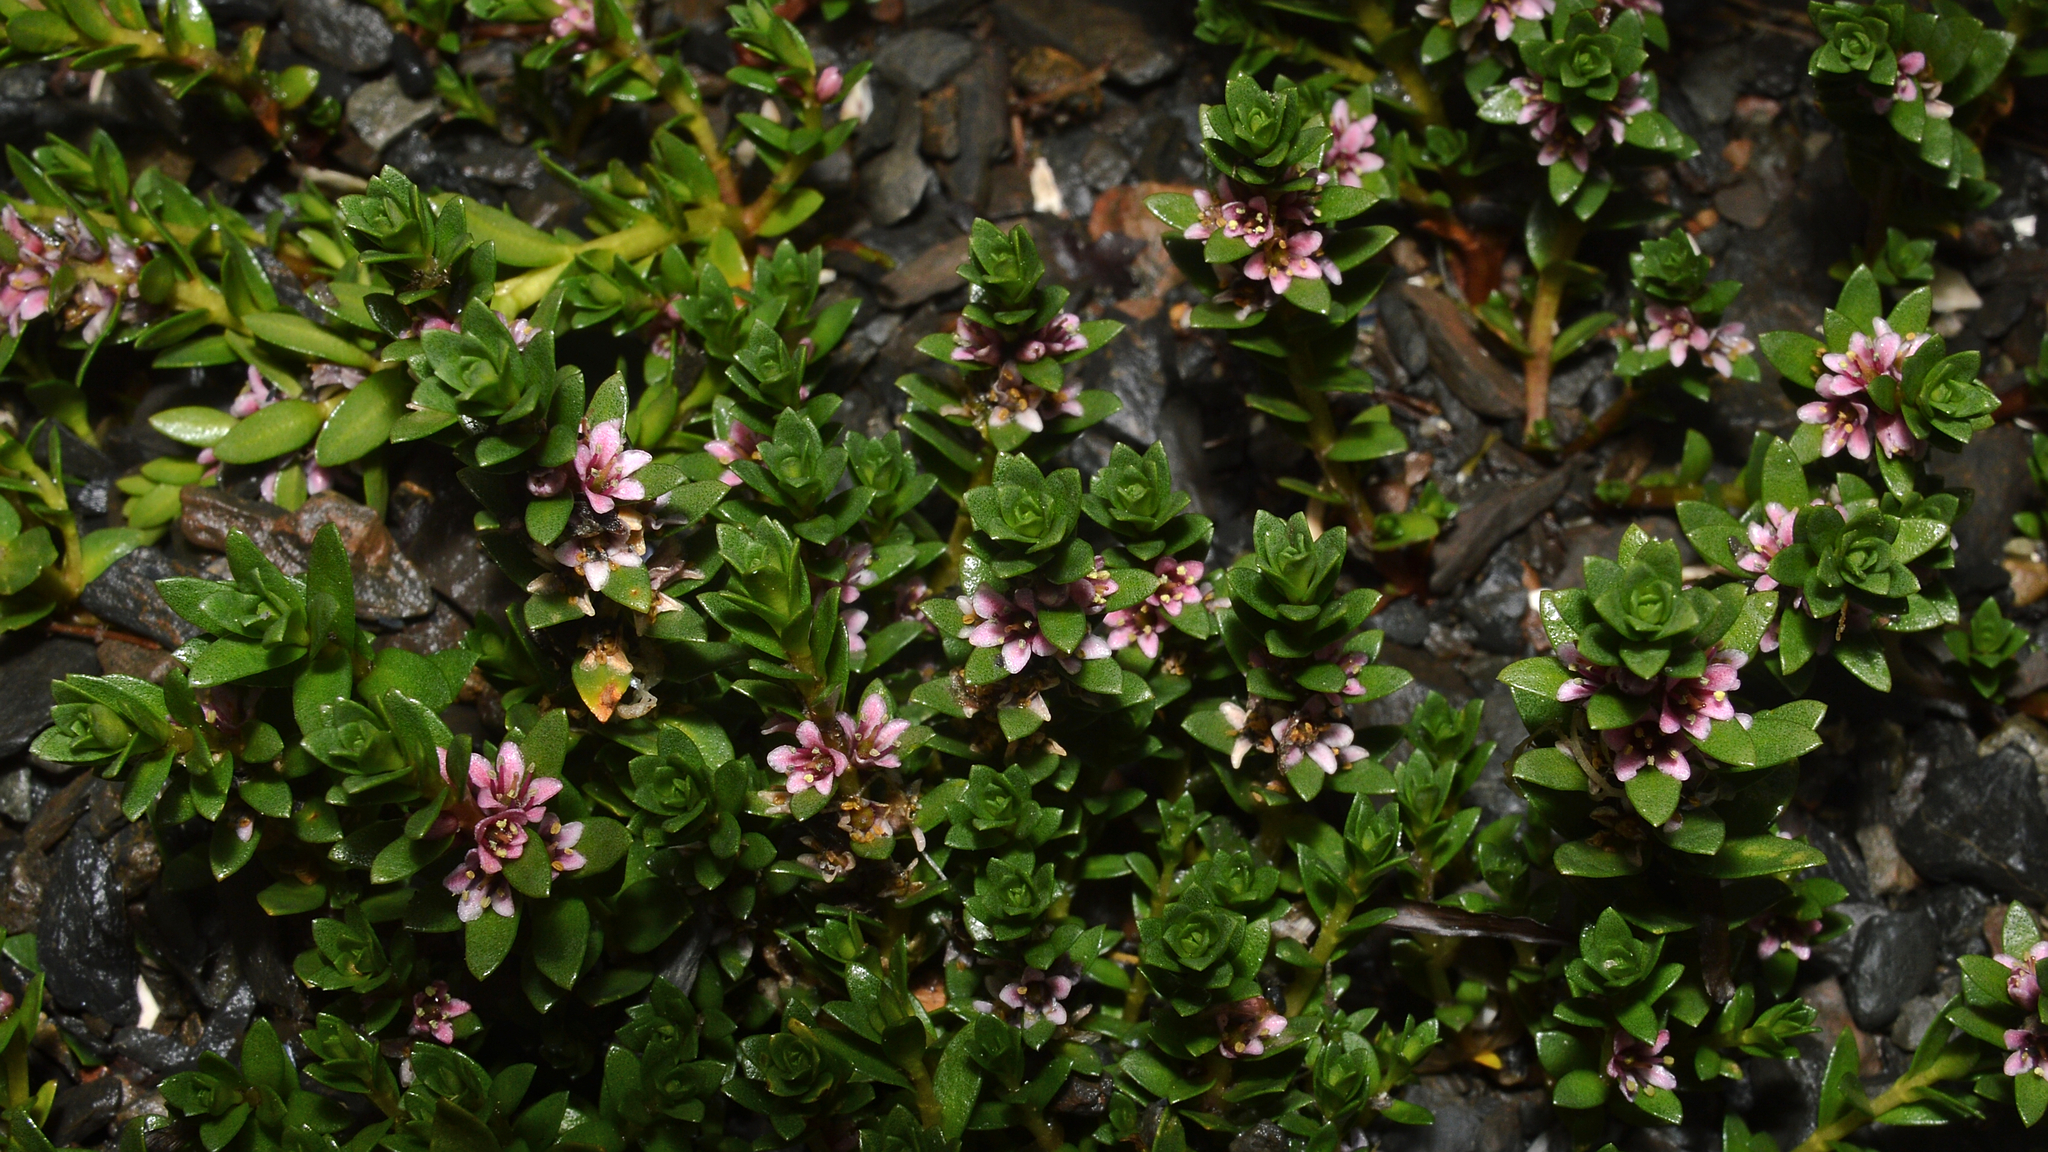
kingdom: Plantae
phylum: Tracheophyta
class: Magnoliopsida
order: Ericales
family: Primulaceae
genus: Lysimachia
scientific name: Lysimachia maritima
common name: Sea milkwort
